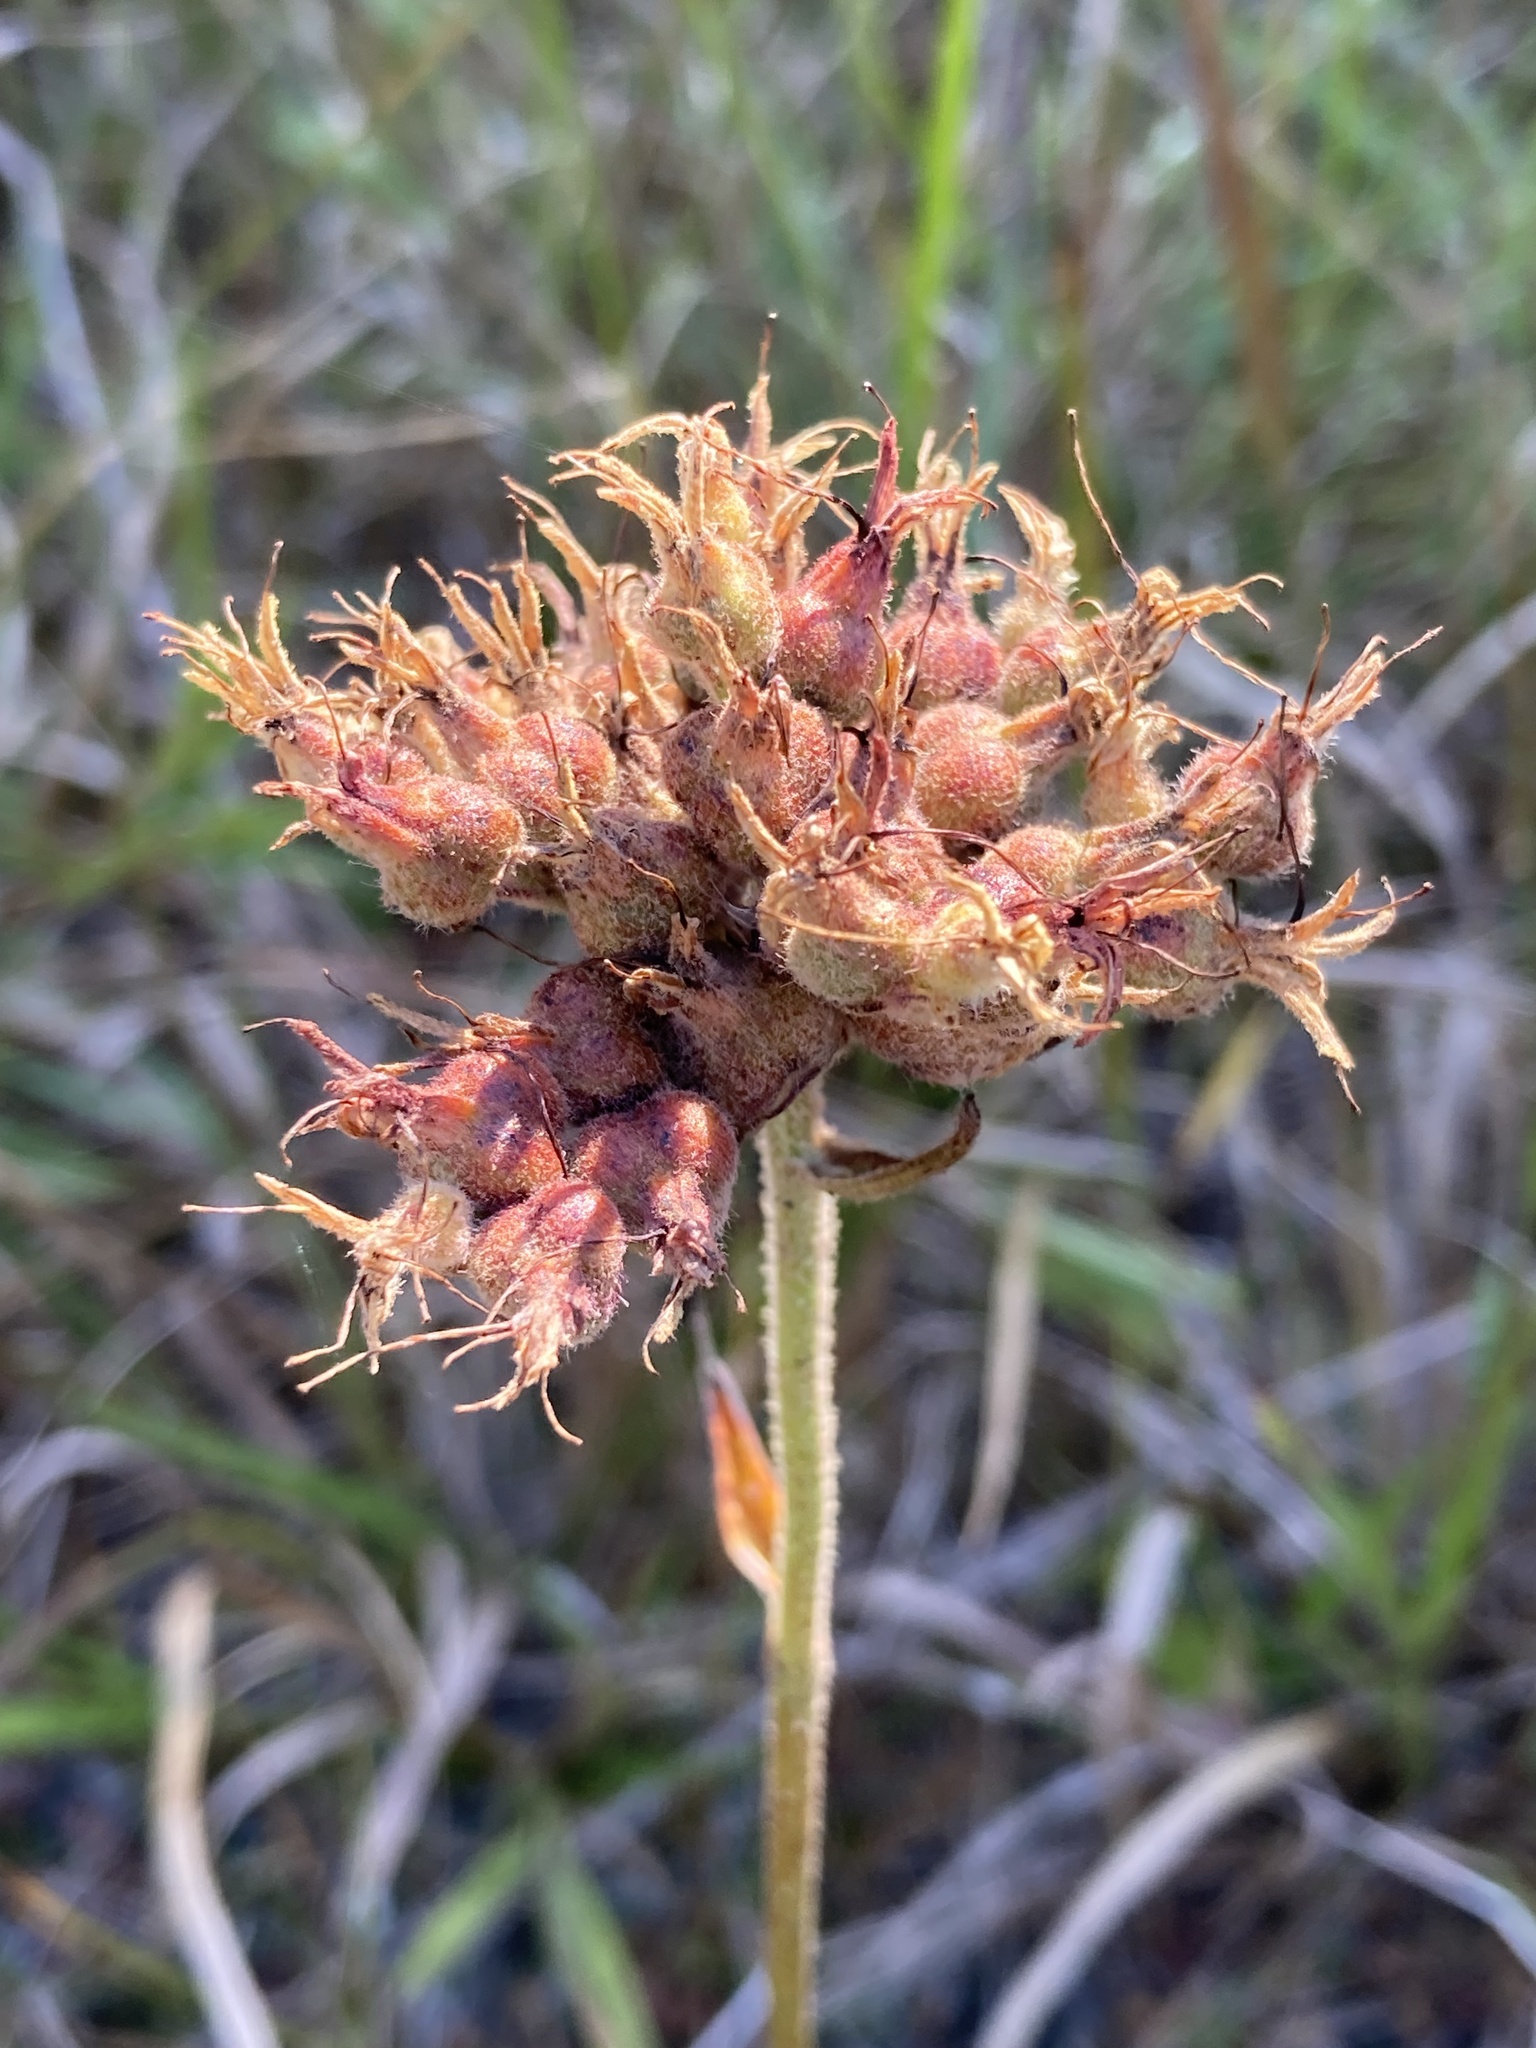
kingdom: Plantae
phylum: Tracheophyta
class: Liliopsida
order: Commelinales
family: Haemodoraceae
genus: Lachnanthes
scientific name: Lachnanthes caroliana
